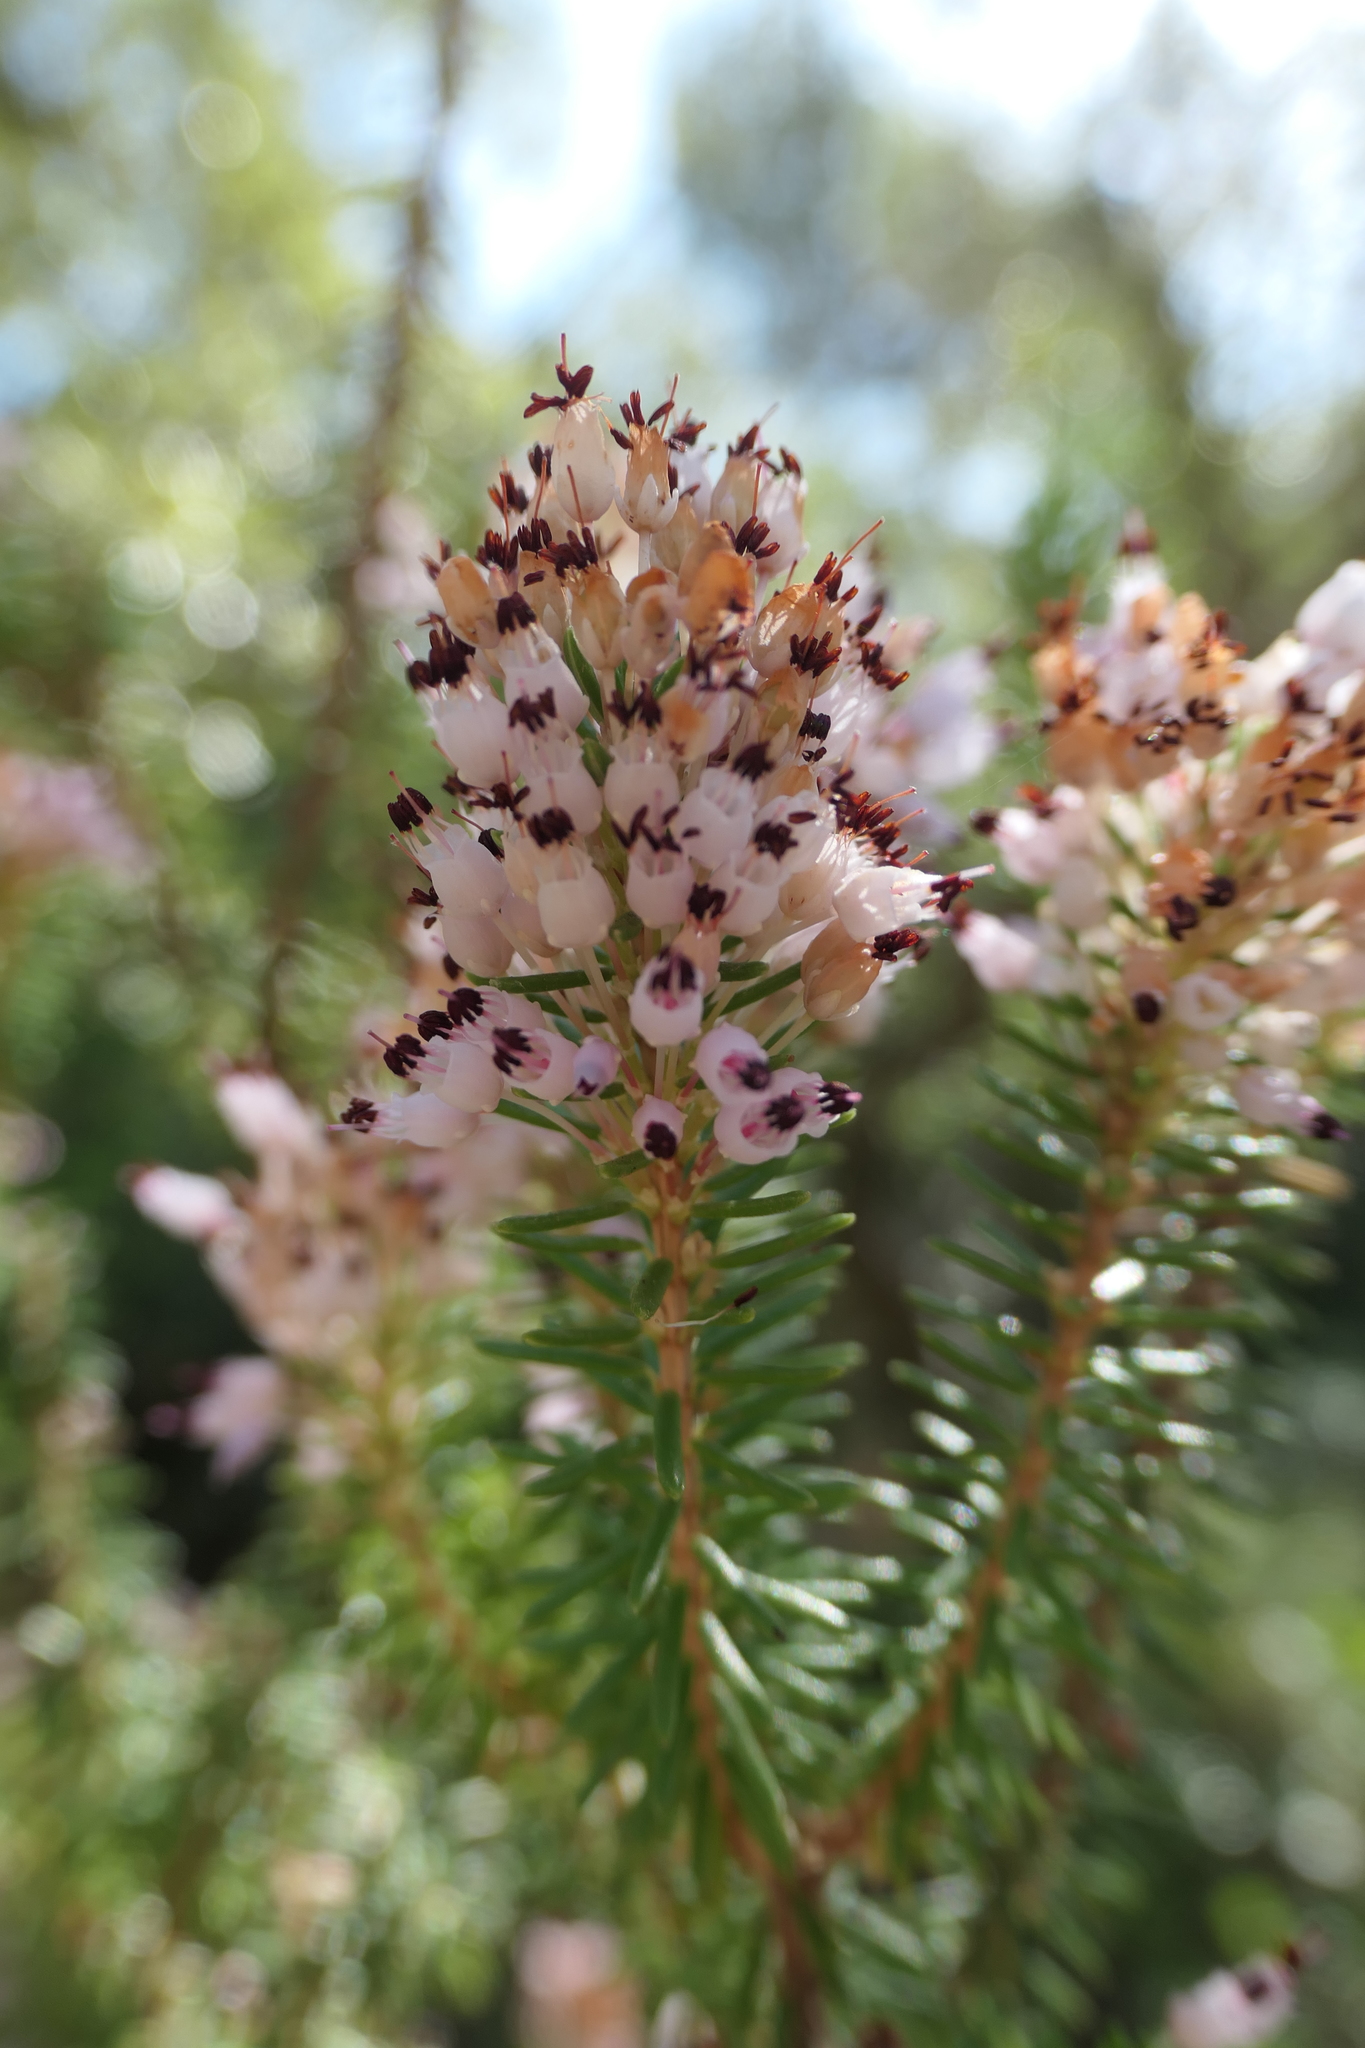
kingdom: Plantae
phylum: Tracheophyta
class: Magnoliopsida
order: Ericales
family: Ericaceae
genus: Erica
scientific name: Erica multiflora
